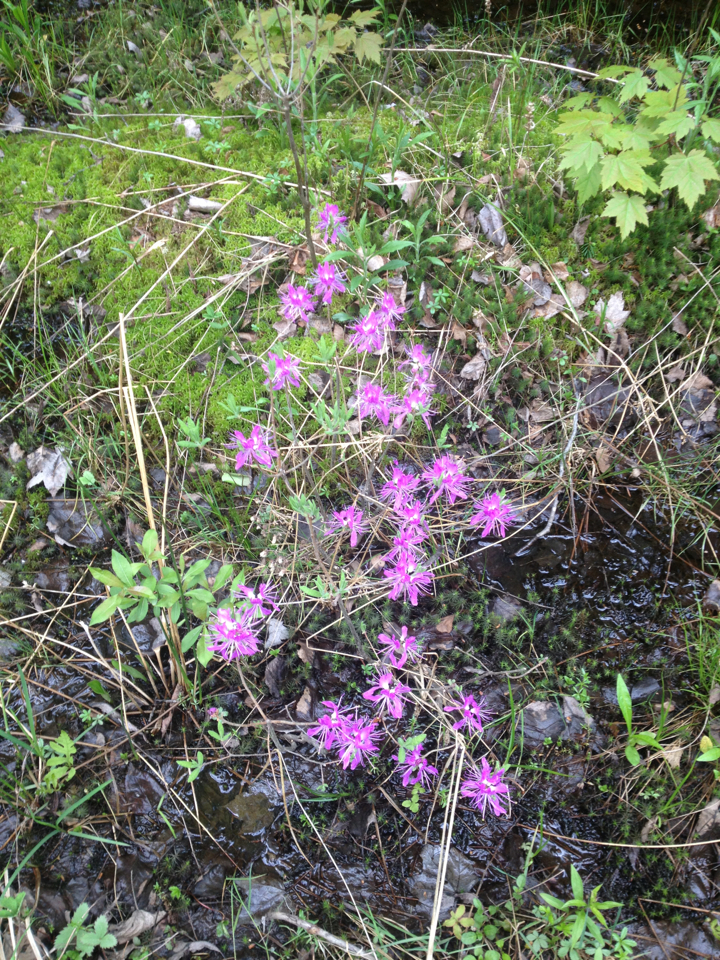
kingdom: Plantae
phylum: Tracheophyta
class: Magnoliopsida
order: Ericales
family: Ericaceae
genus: Rhododendron
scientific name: Rhododendron canadense
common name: Rhodora
